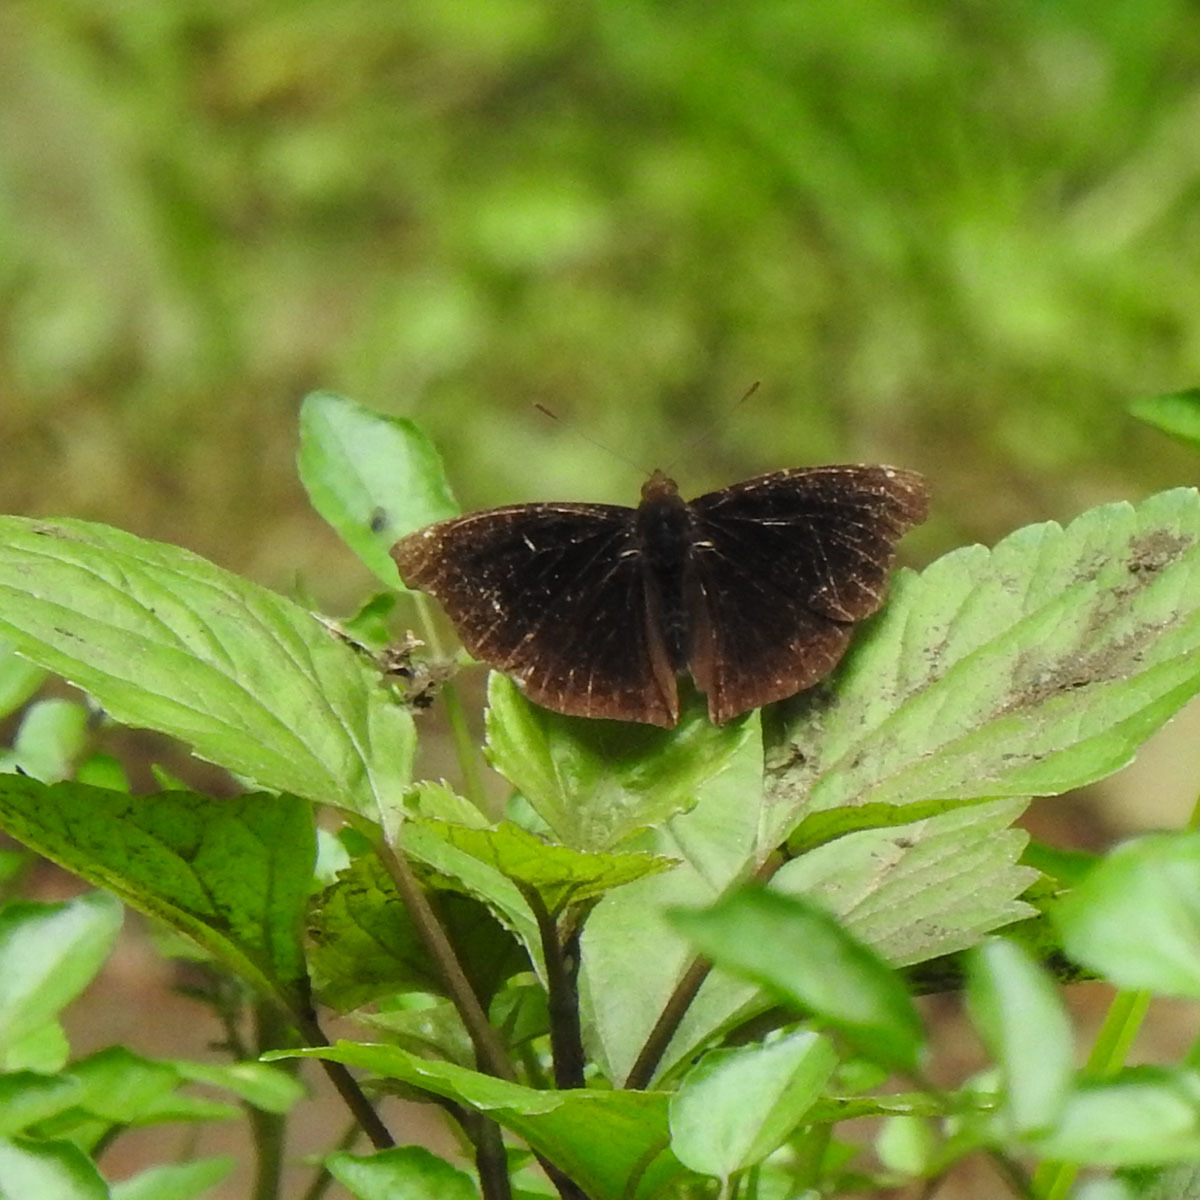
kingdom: Animalia
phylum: Arthropoda
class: Insecta
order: Lepidoptera
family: Nymphalidae
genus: Apatura
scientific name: Apatura Rohana spec
